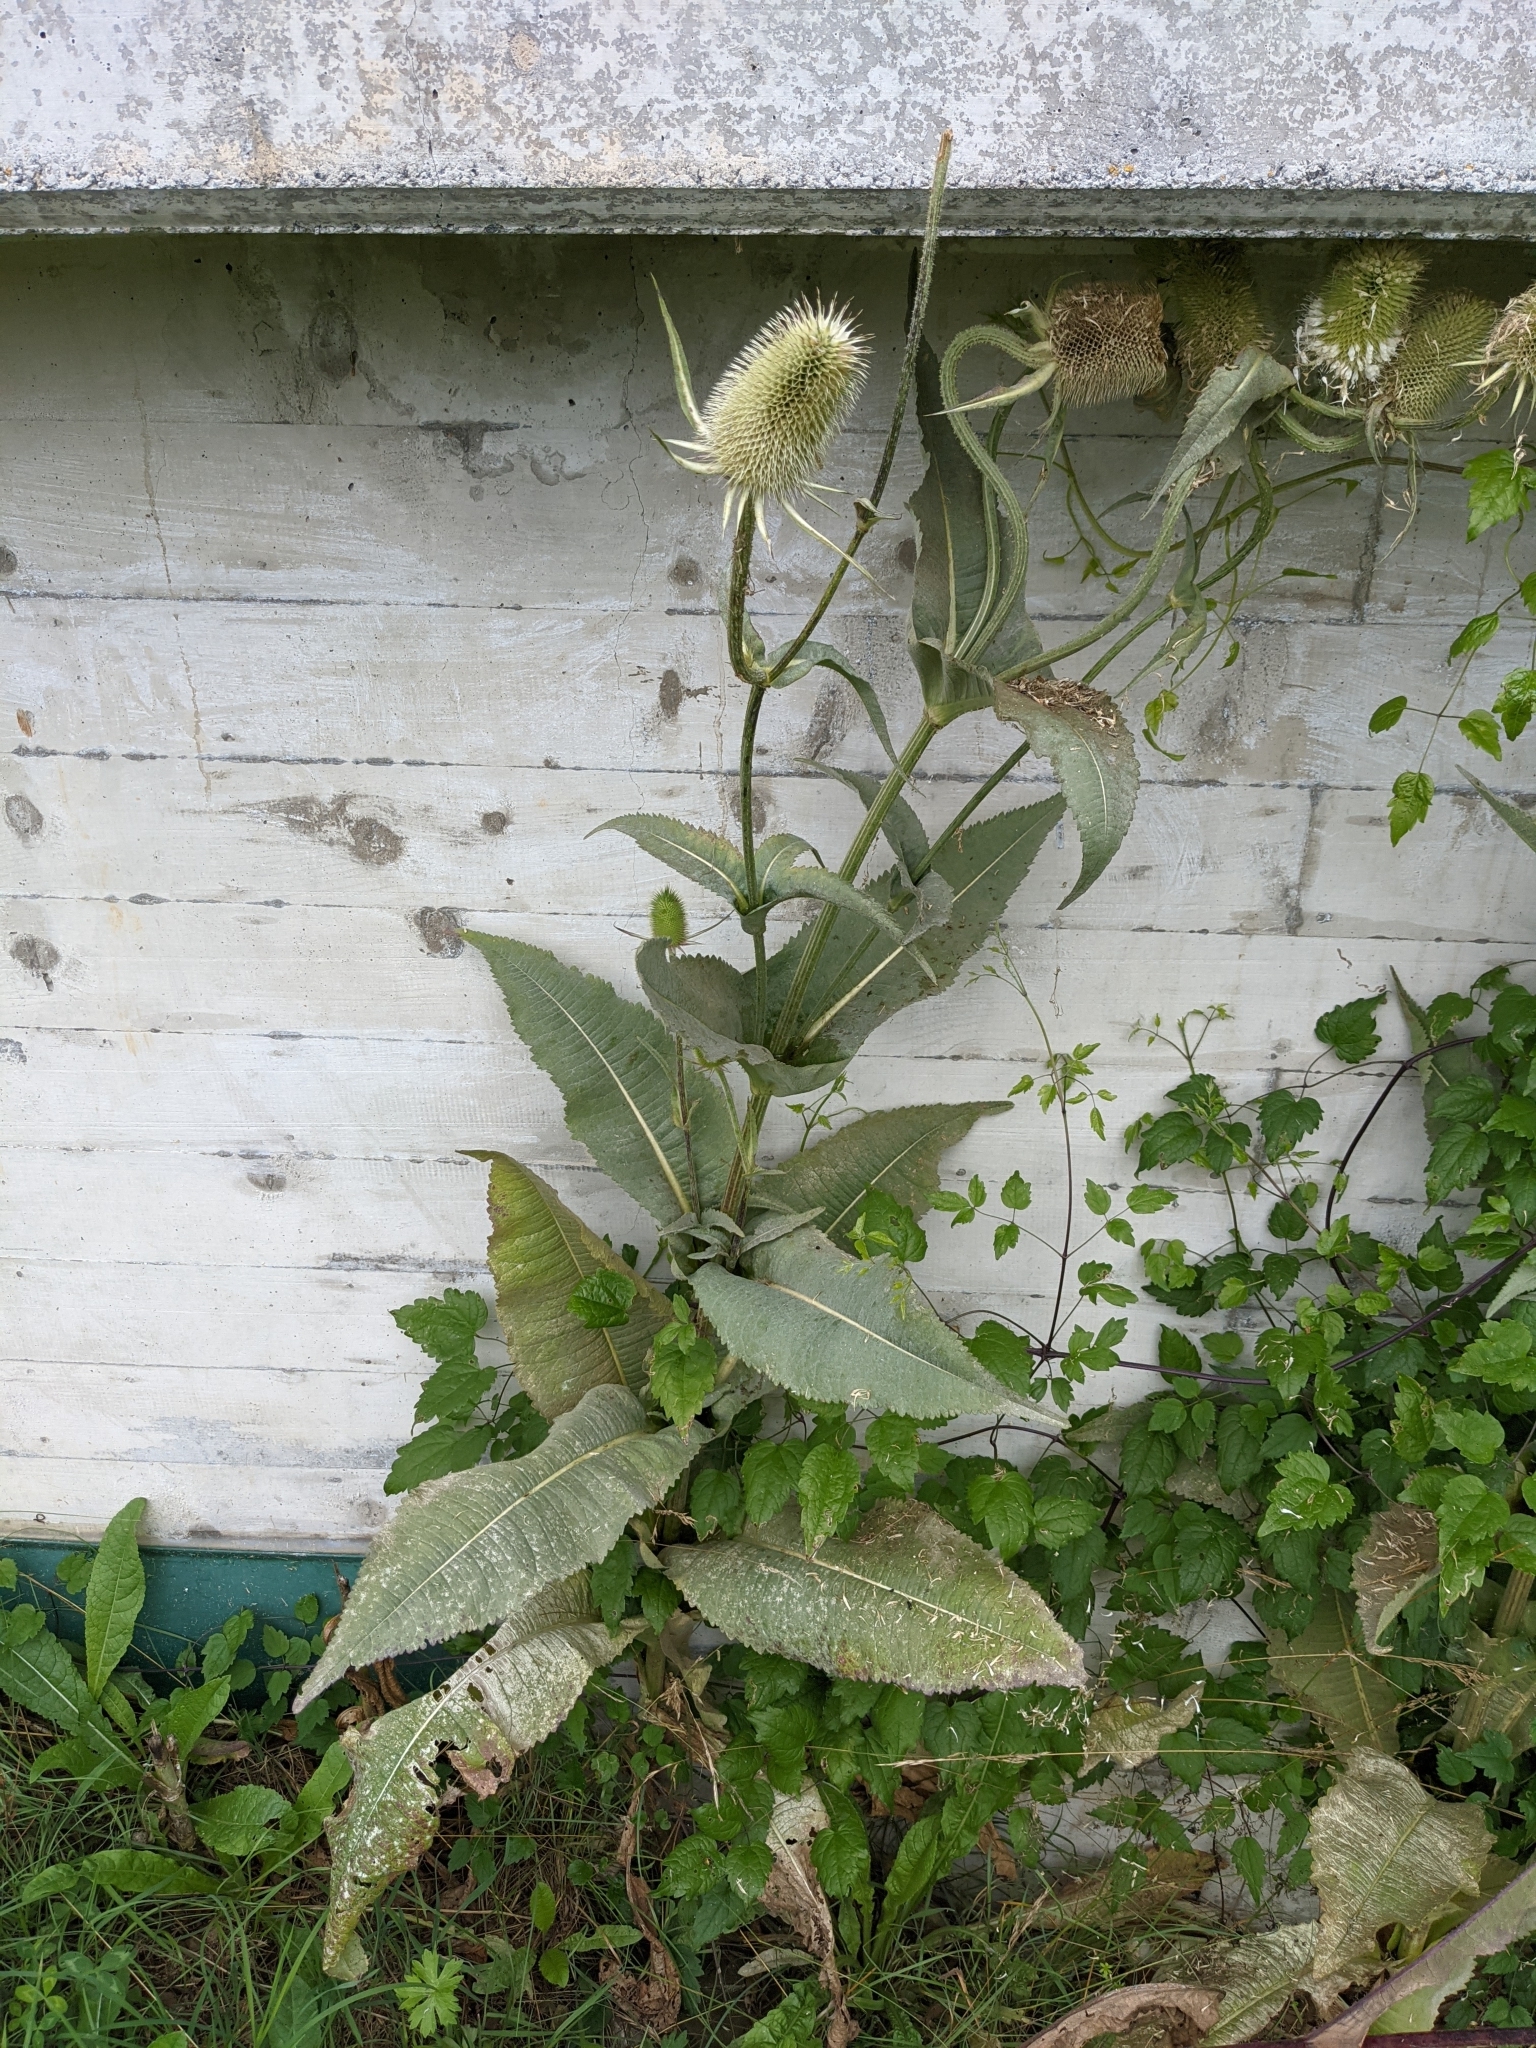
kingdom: Plantae
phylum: Tracheophyta
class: Magnoliopsida
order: Dipsacales
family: Caprifoliaceae
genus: Dipsacus
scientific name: Dipsacus laciniatus
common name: Cut-leaved teasel
